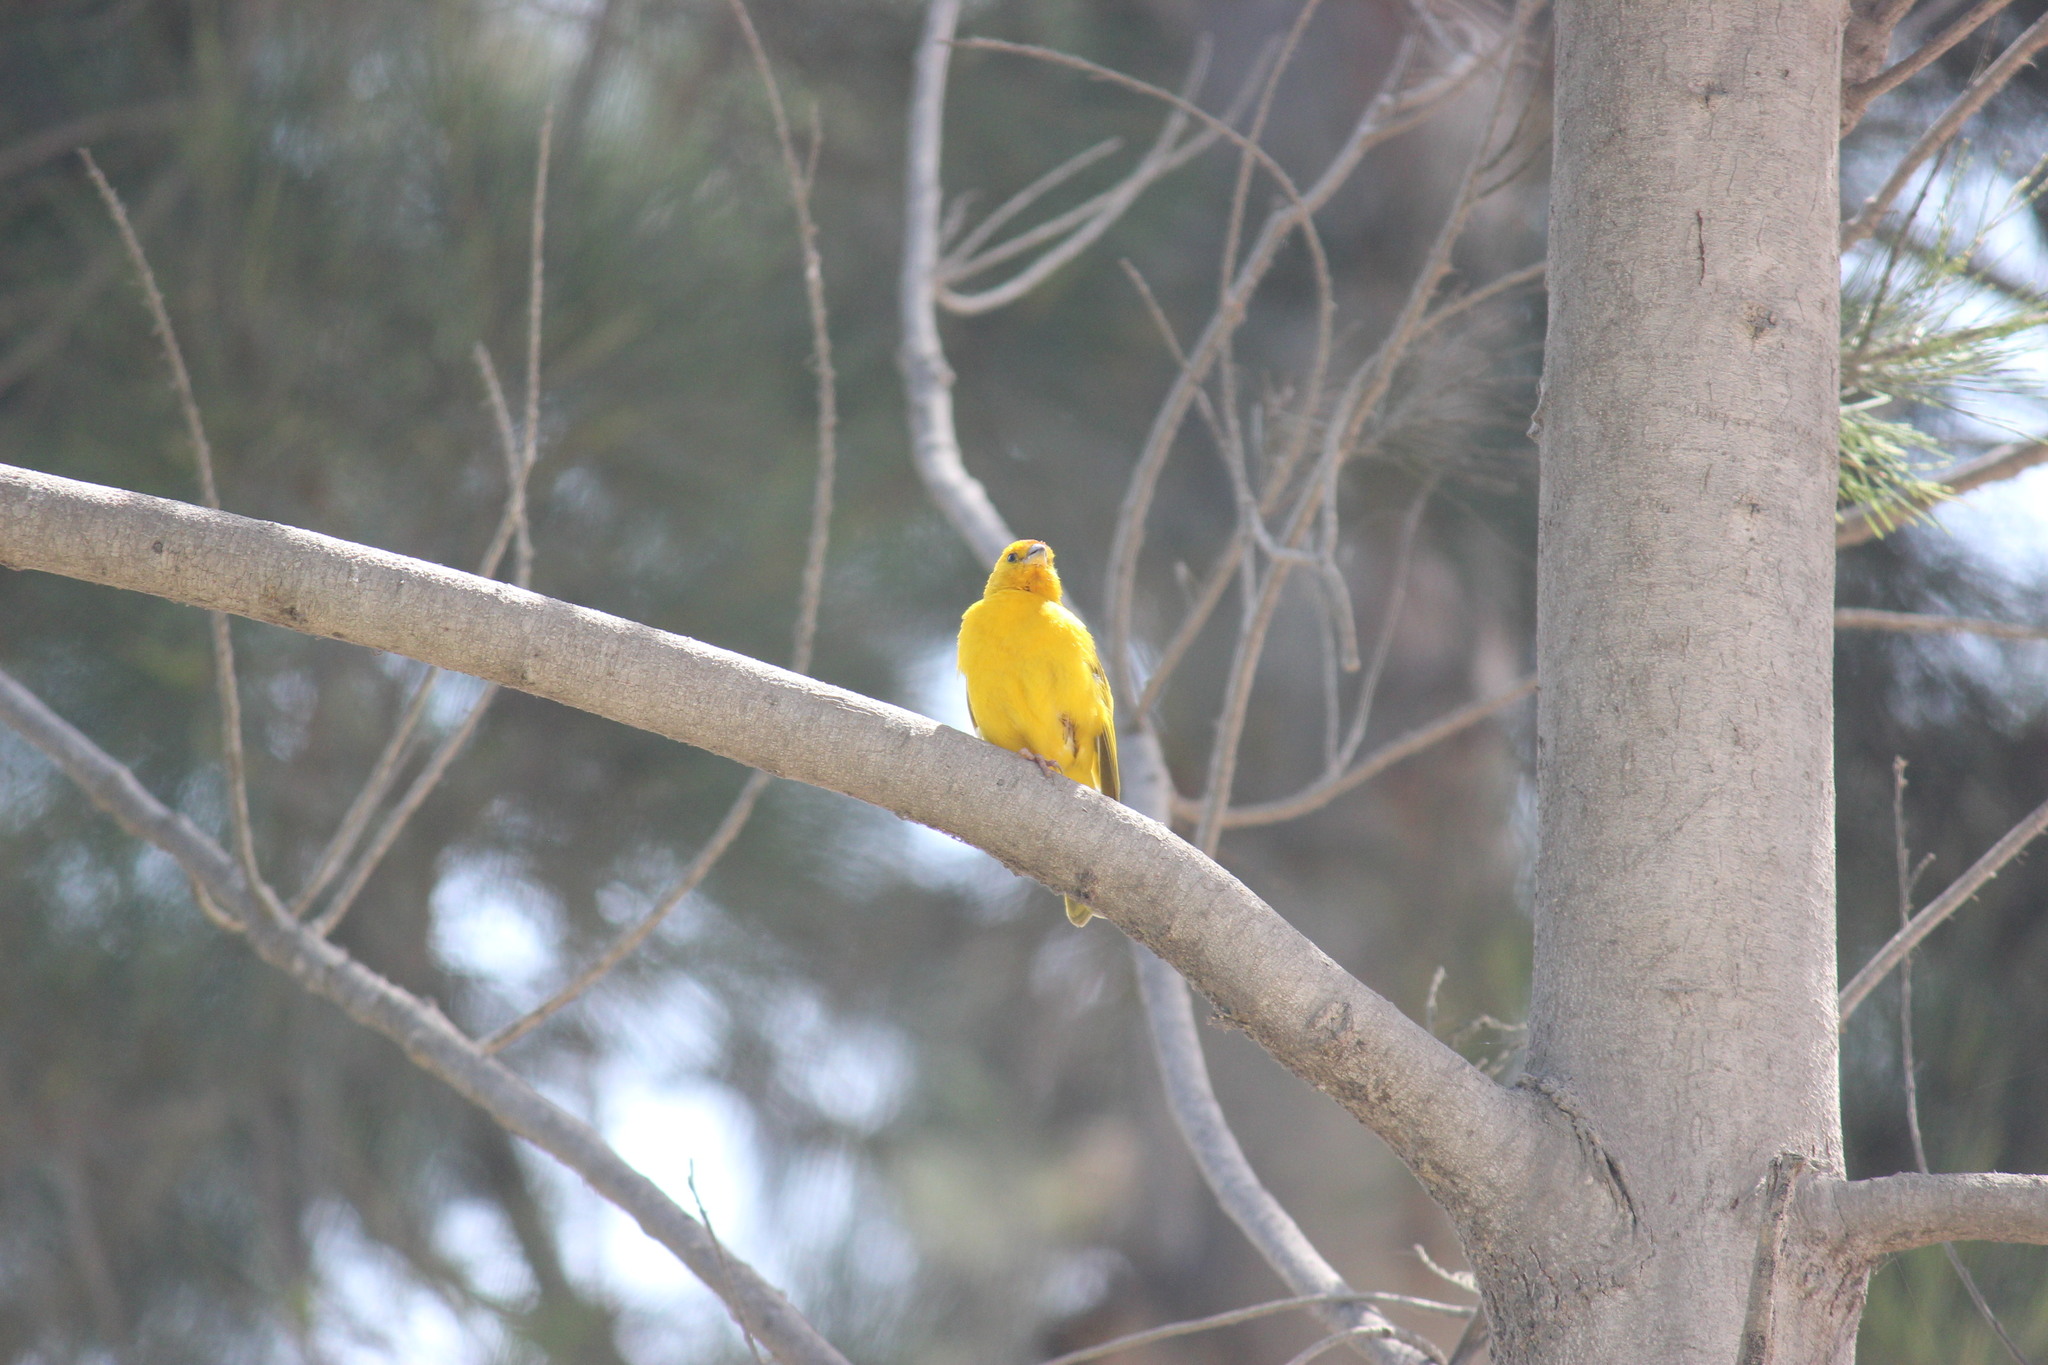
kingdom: Animalia
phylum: Chordata
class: Aves
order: Passeriformes
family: Thraupidae
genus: Sicalis
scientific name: Sicalis flaveola
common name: Saffron finch
